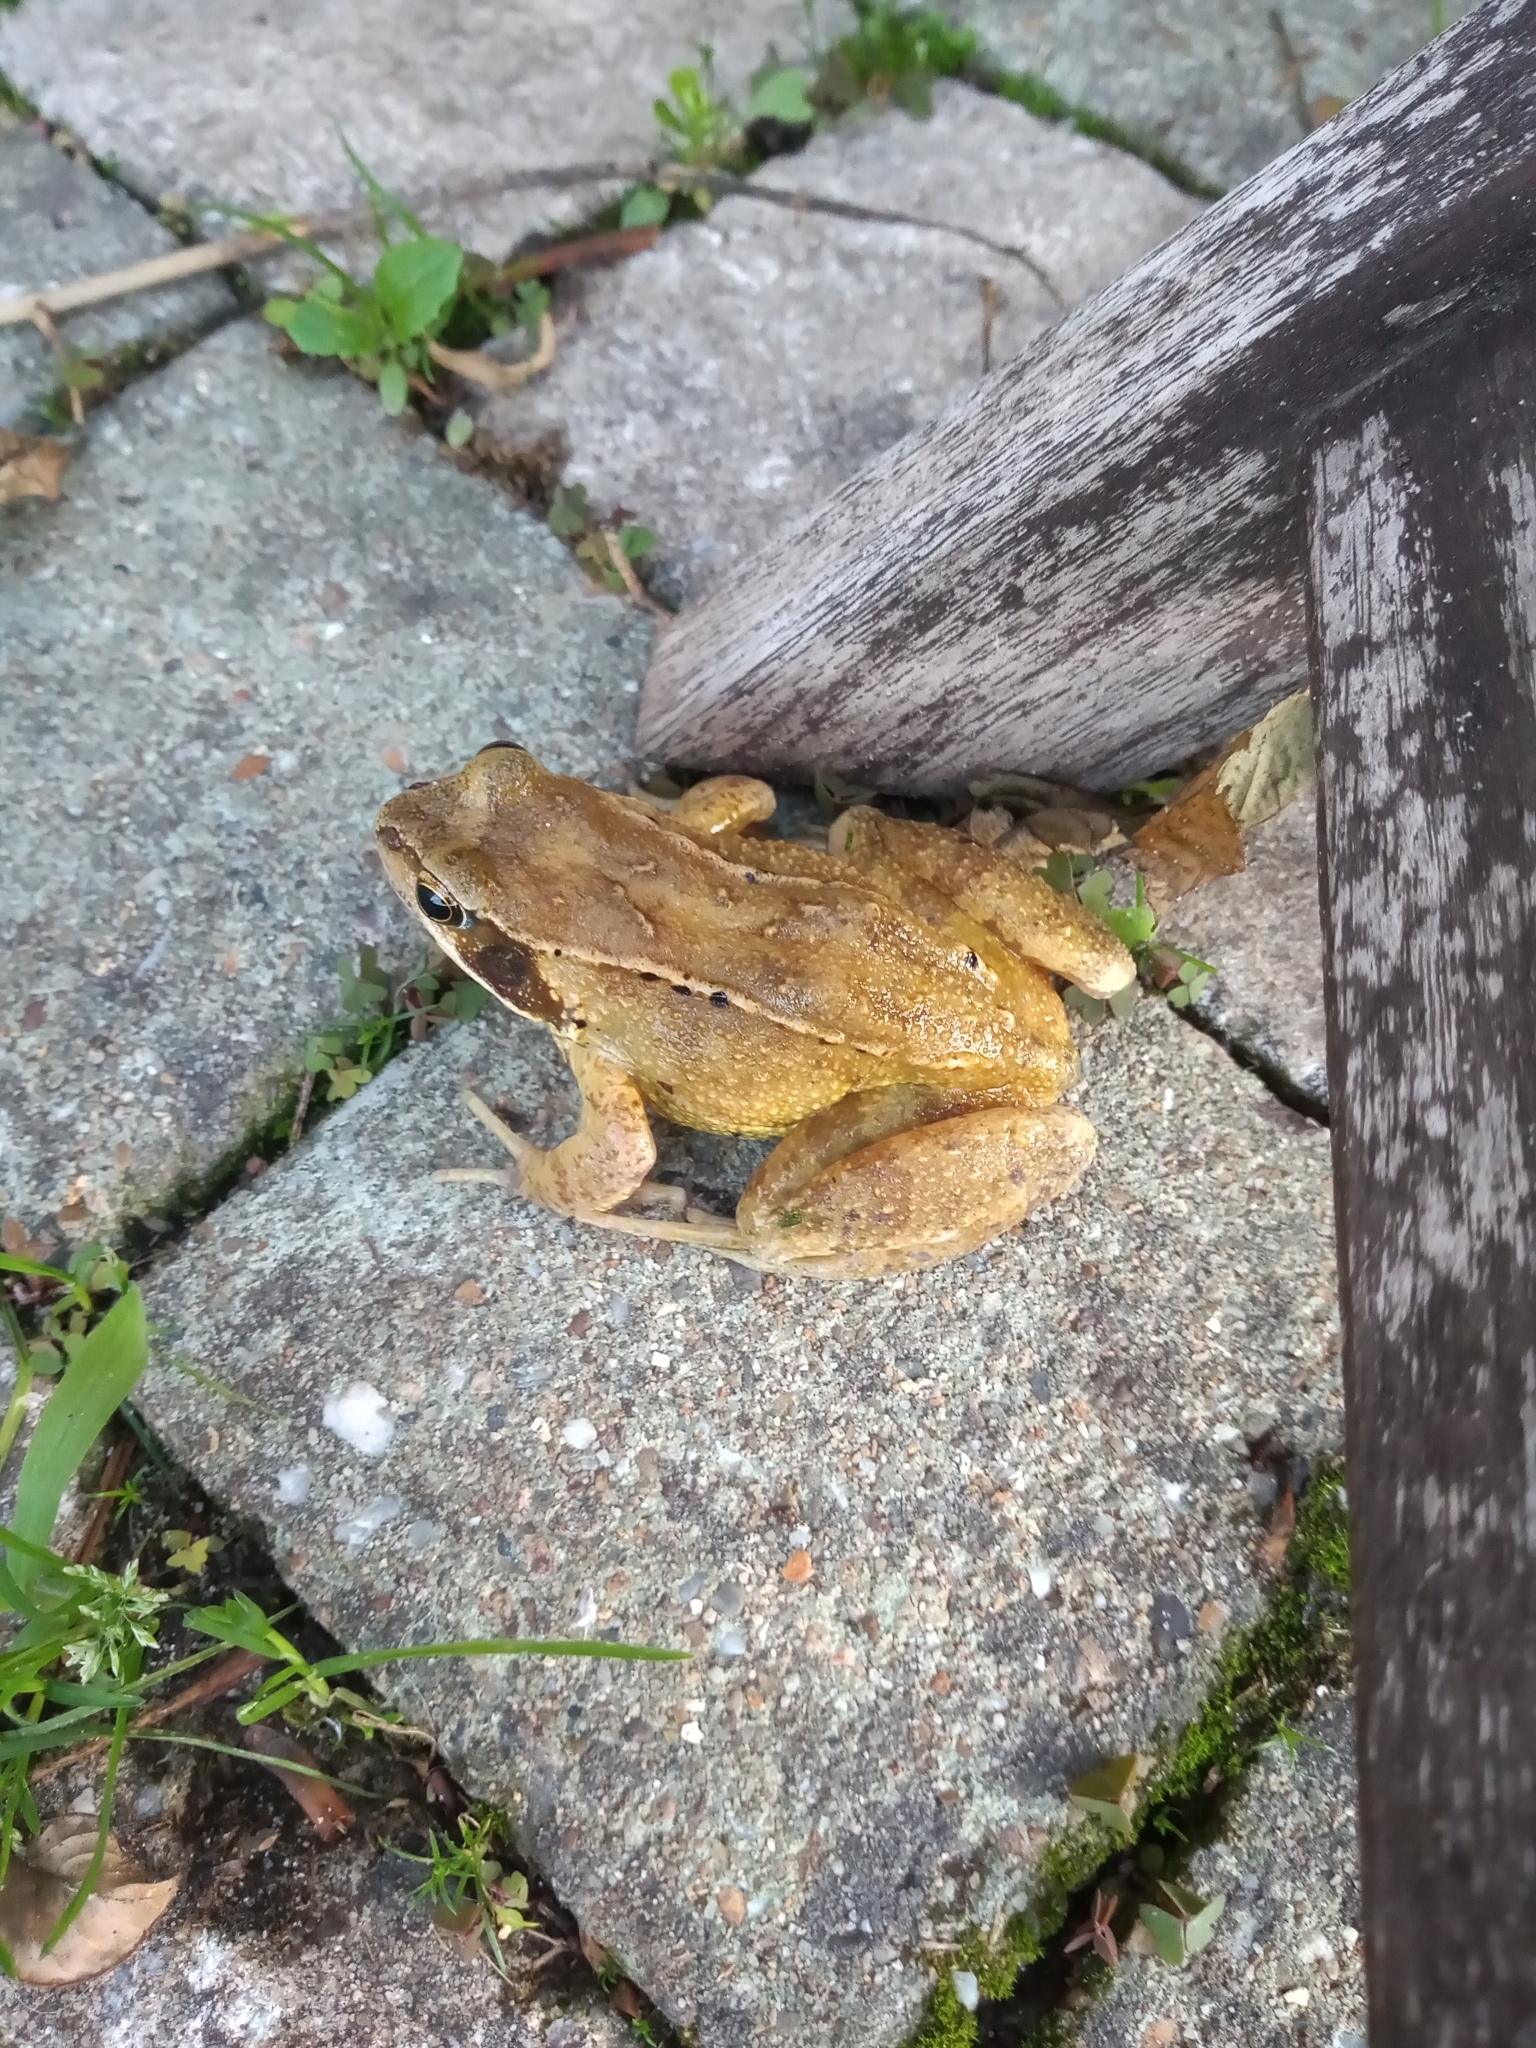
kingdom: Animalia
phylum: Chordata
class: Amphibia
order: Anura
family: Ranidae
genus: Rana
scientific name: Rana temporaria
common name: Common frog
